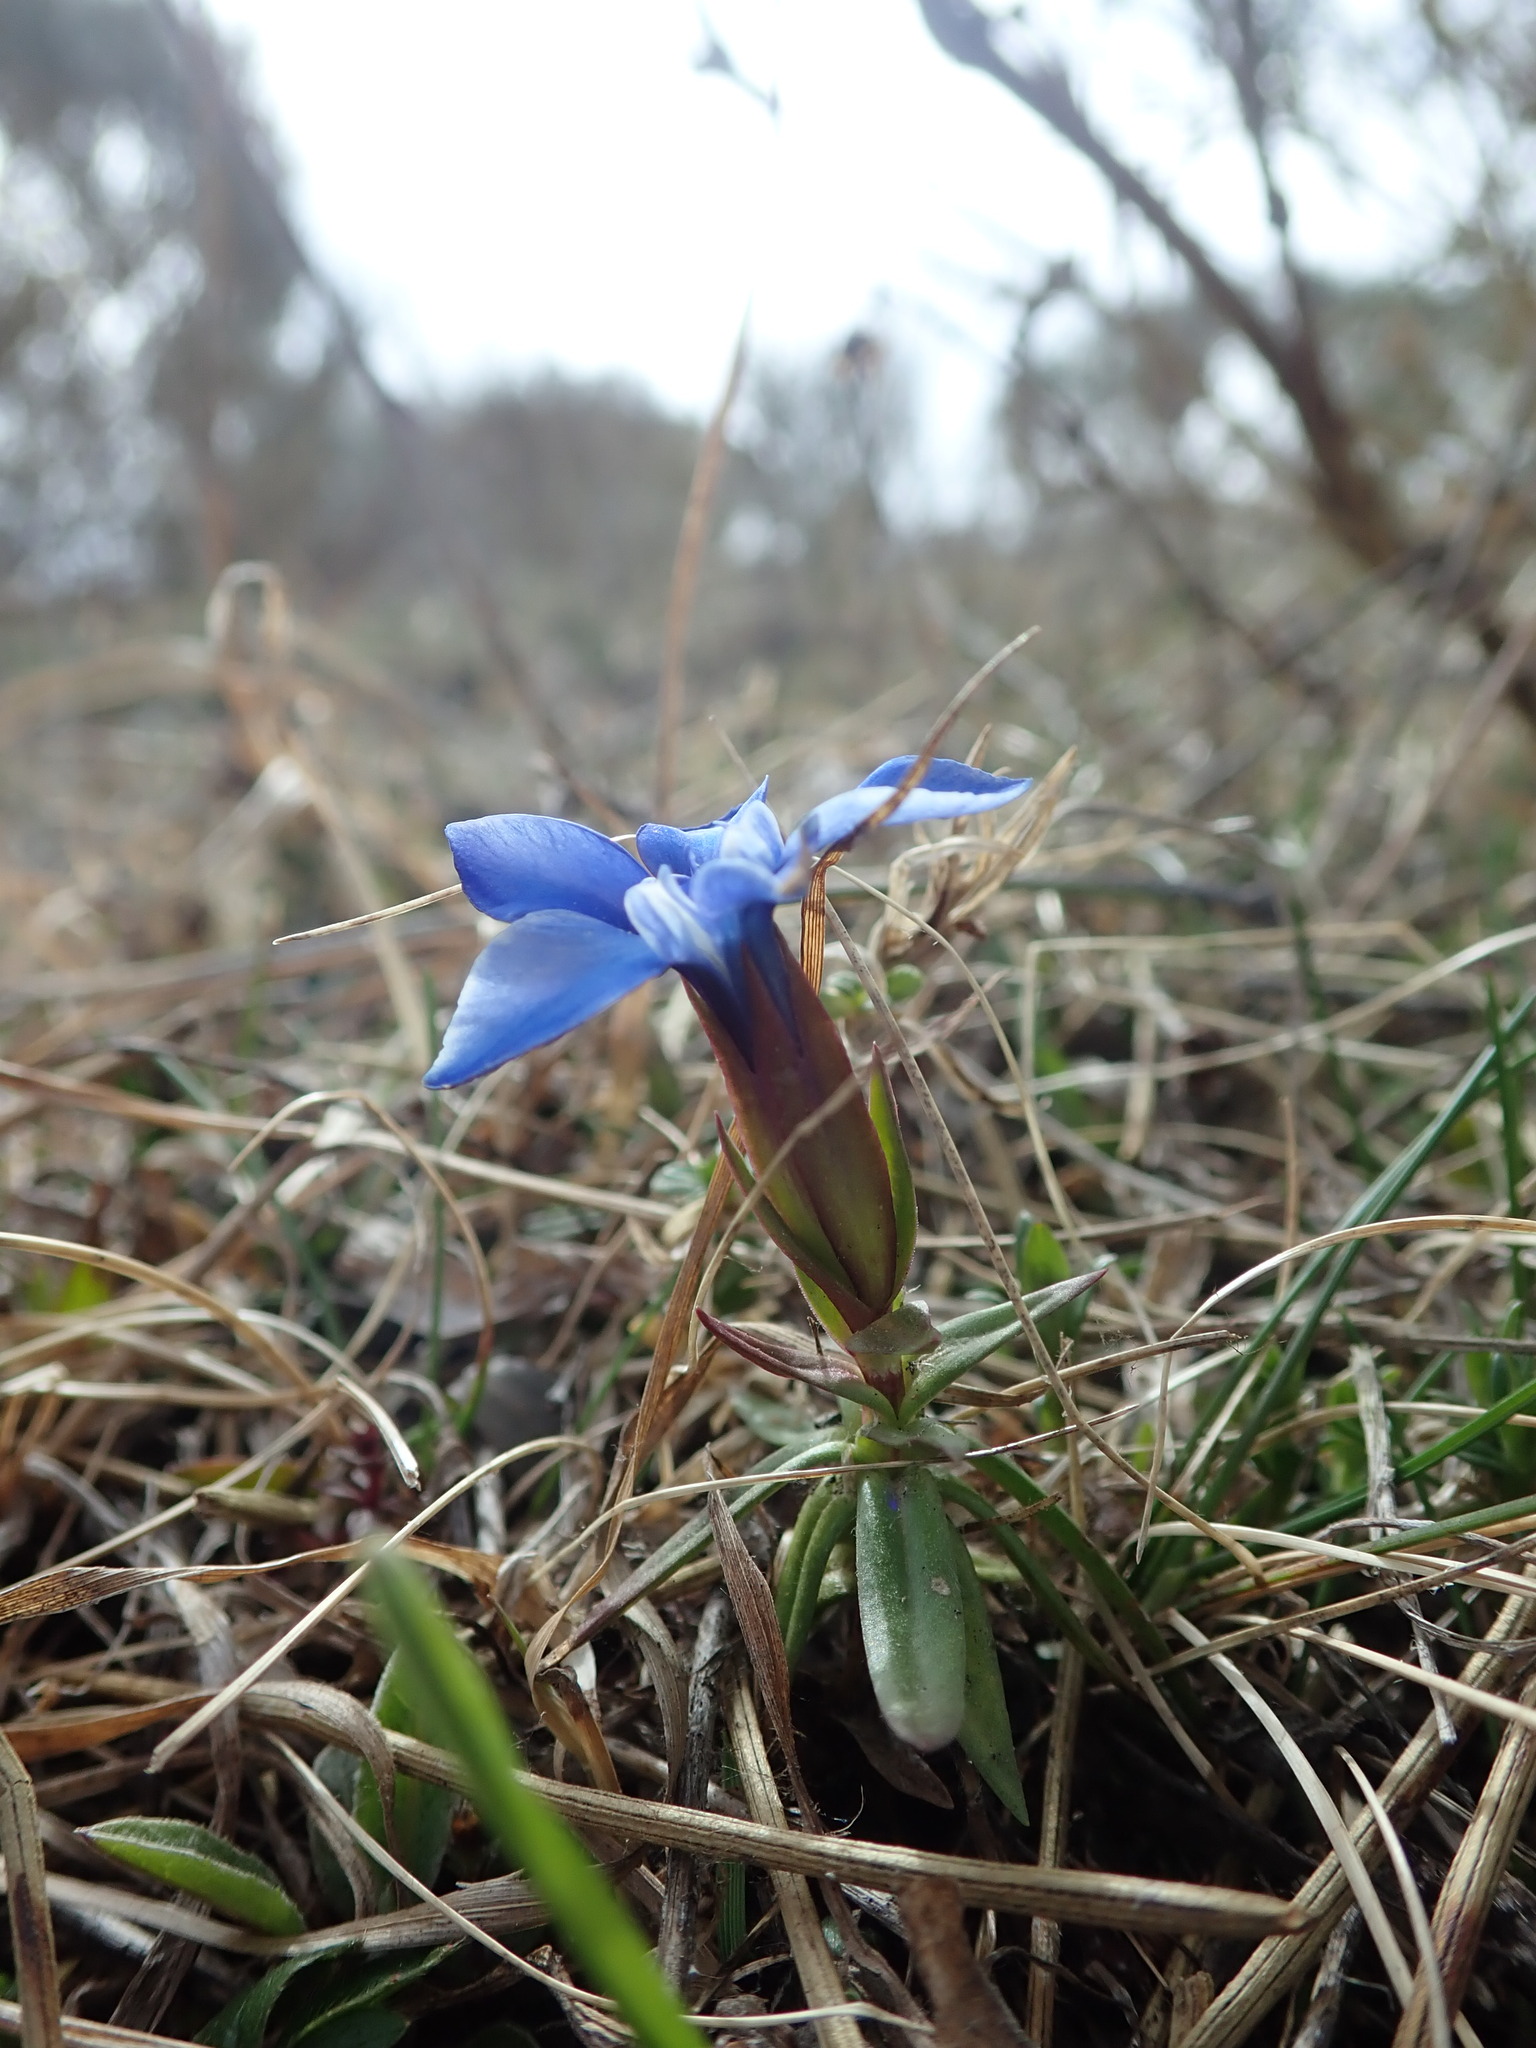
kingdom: Plantae
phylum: Tracheophyta
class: Magnoliopsida
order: Gentianales
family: Gentianaceae
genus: Gentiana
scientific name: Gentiana pumila
